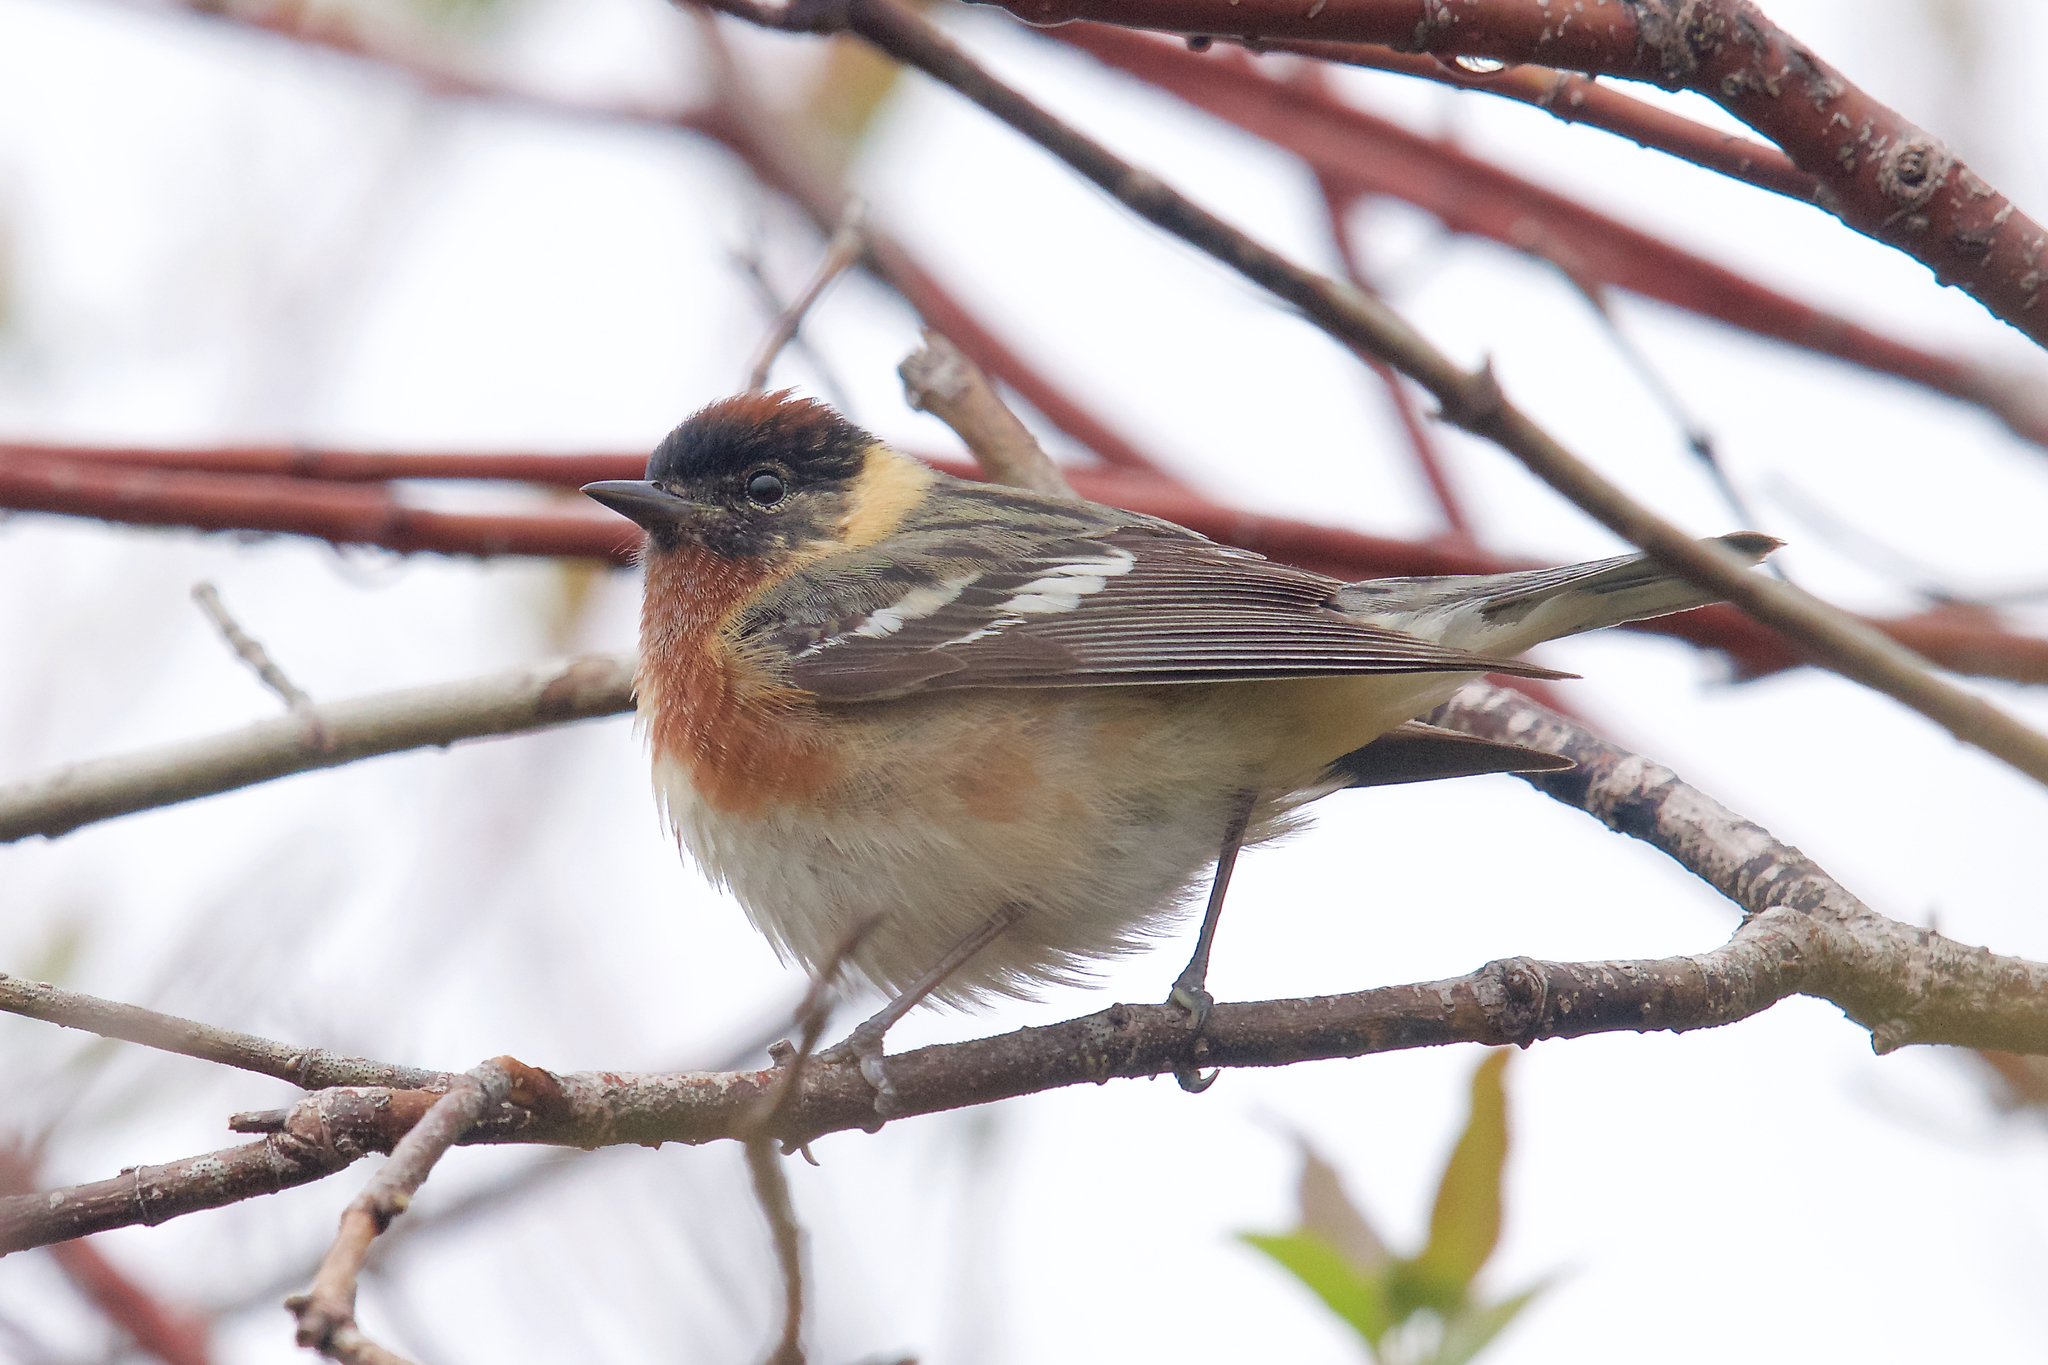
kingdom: Animalia
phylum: Chordata
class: Aves
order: Passeriformes
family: Parulidae
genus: Setophaga
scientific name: Setophaga castanea
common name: Bay-breasted warbler
